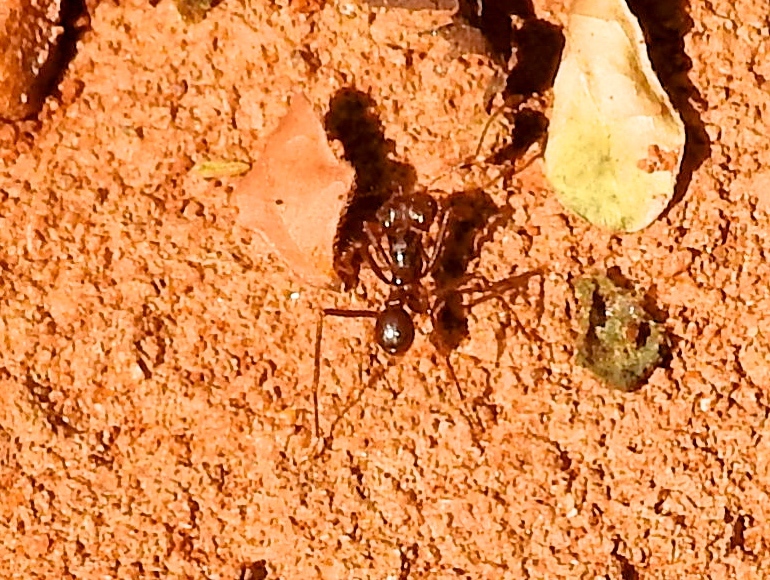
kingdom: Animalia
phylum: Arthropoda
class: Insecta
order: Hymenoptera
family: Formicidae
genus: Atta
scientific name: Atta mexicana
